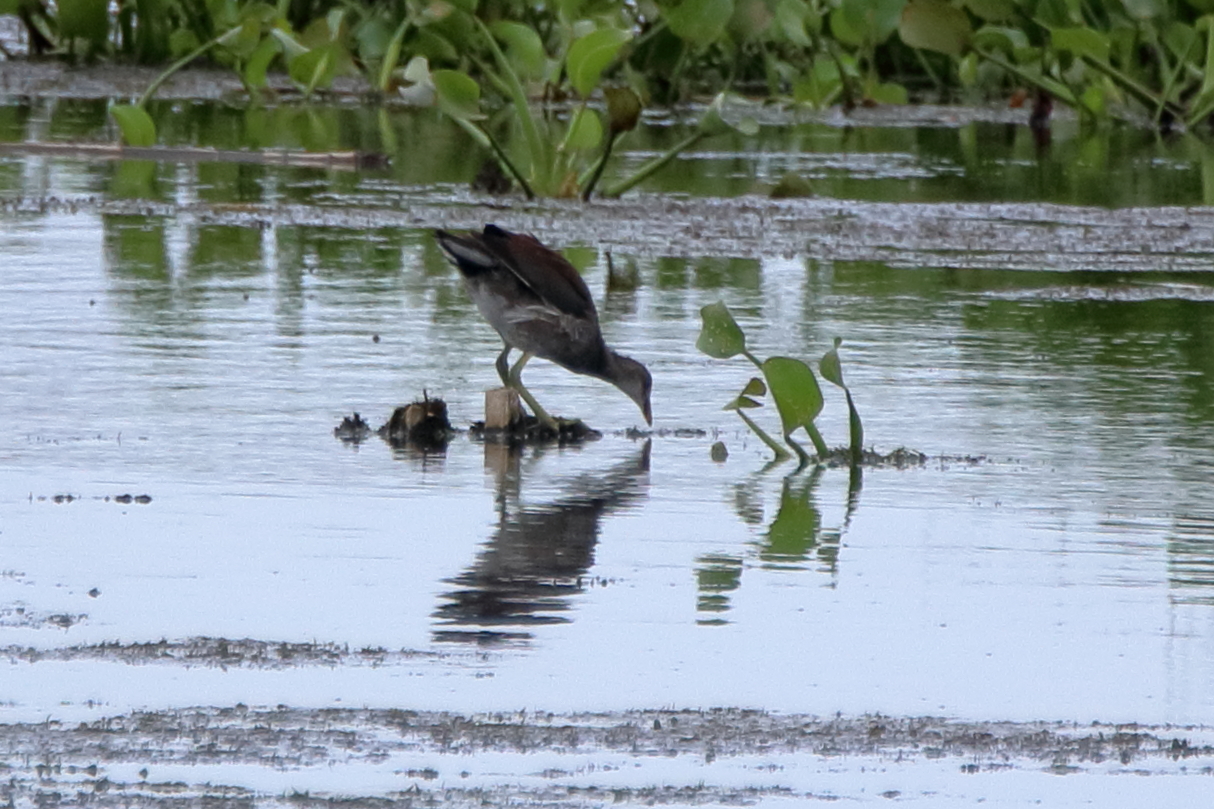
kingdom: Animalia
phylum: Chordata
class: Aves
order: Gruiformes
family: Rallidae
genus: Gallinula
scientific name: Gallinula chloropus
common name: Common moorhen
